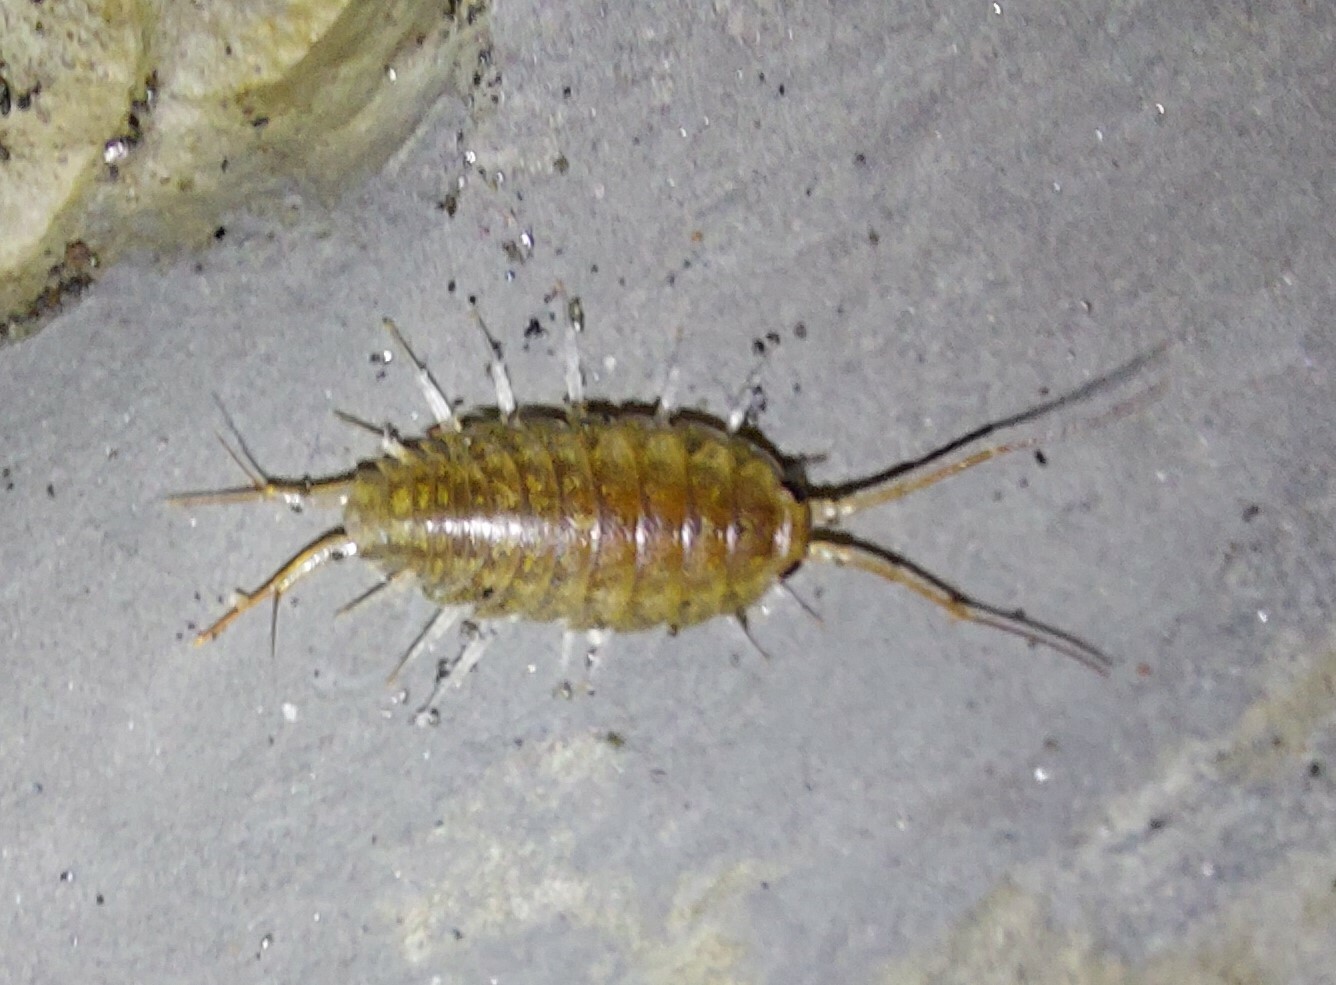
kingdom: Animalia
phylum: Arthropoda
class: Malacostraca
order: Isopoda
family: Ligiidae
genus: Ligia
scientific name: Ligia novizealandiae
